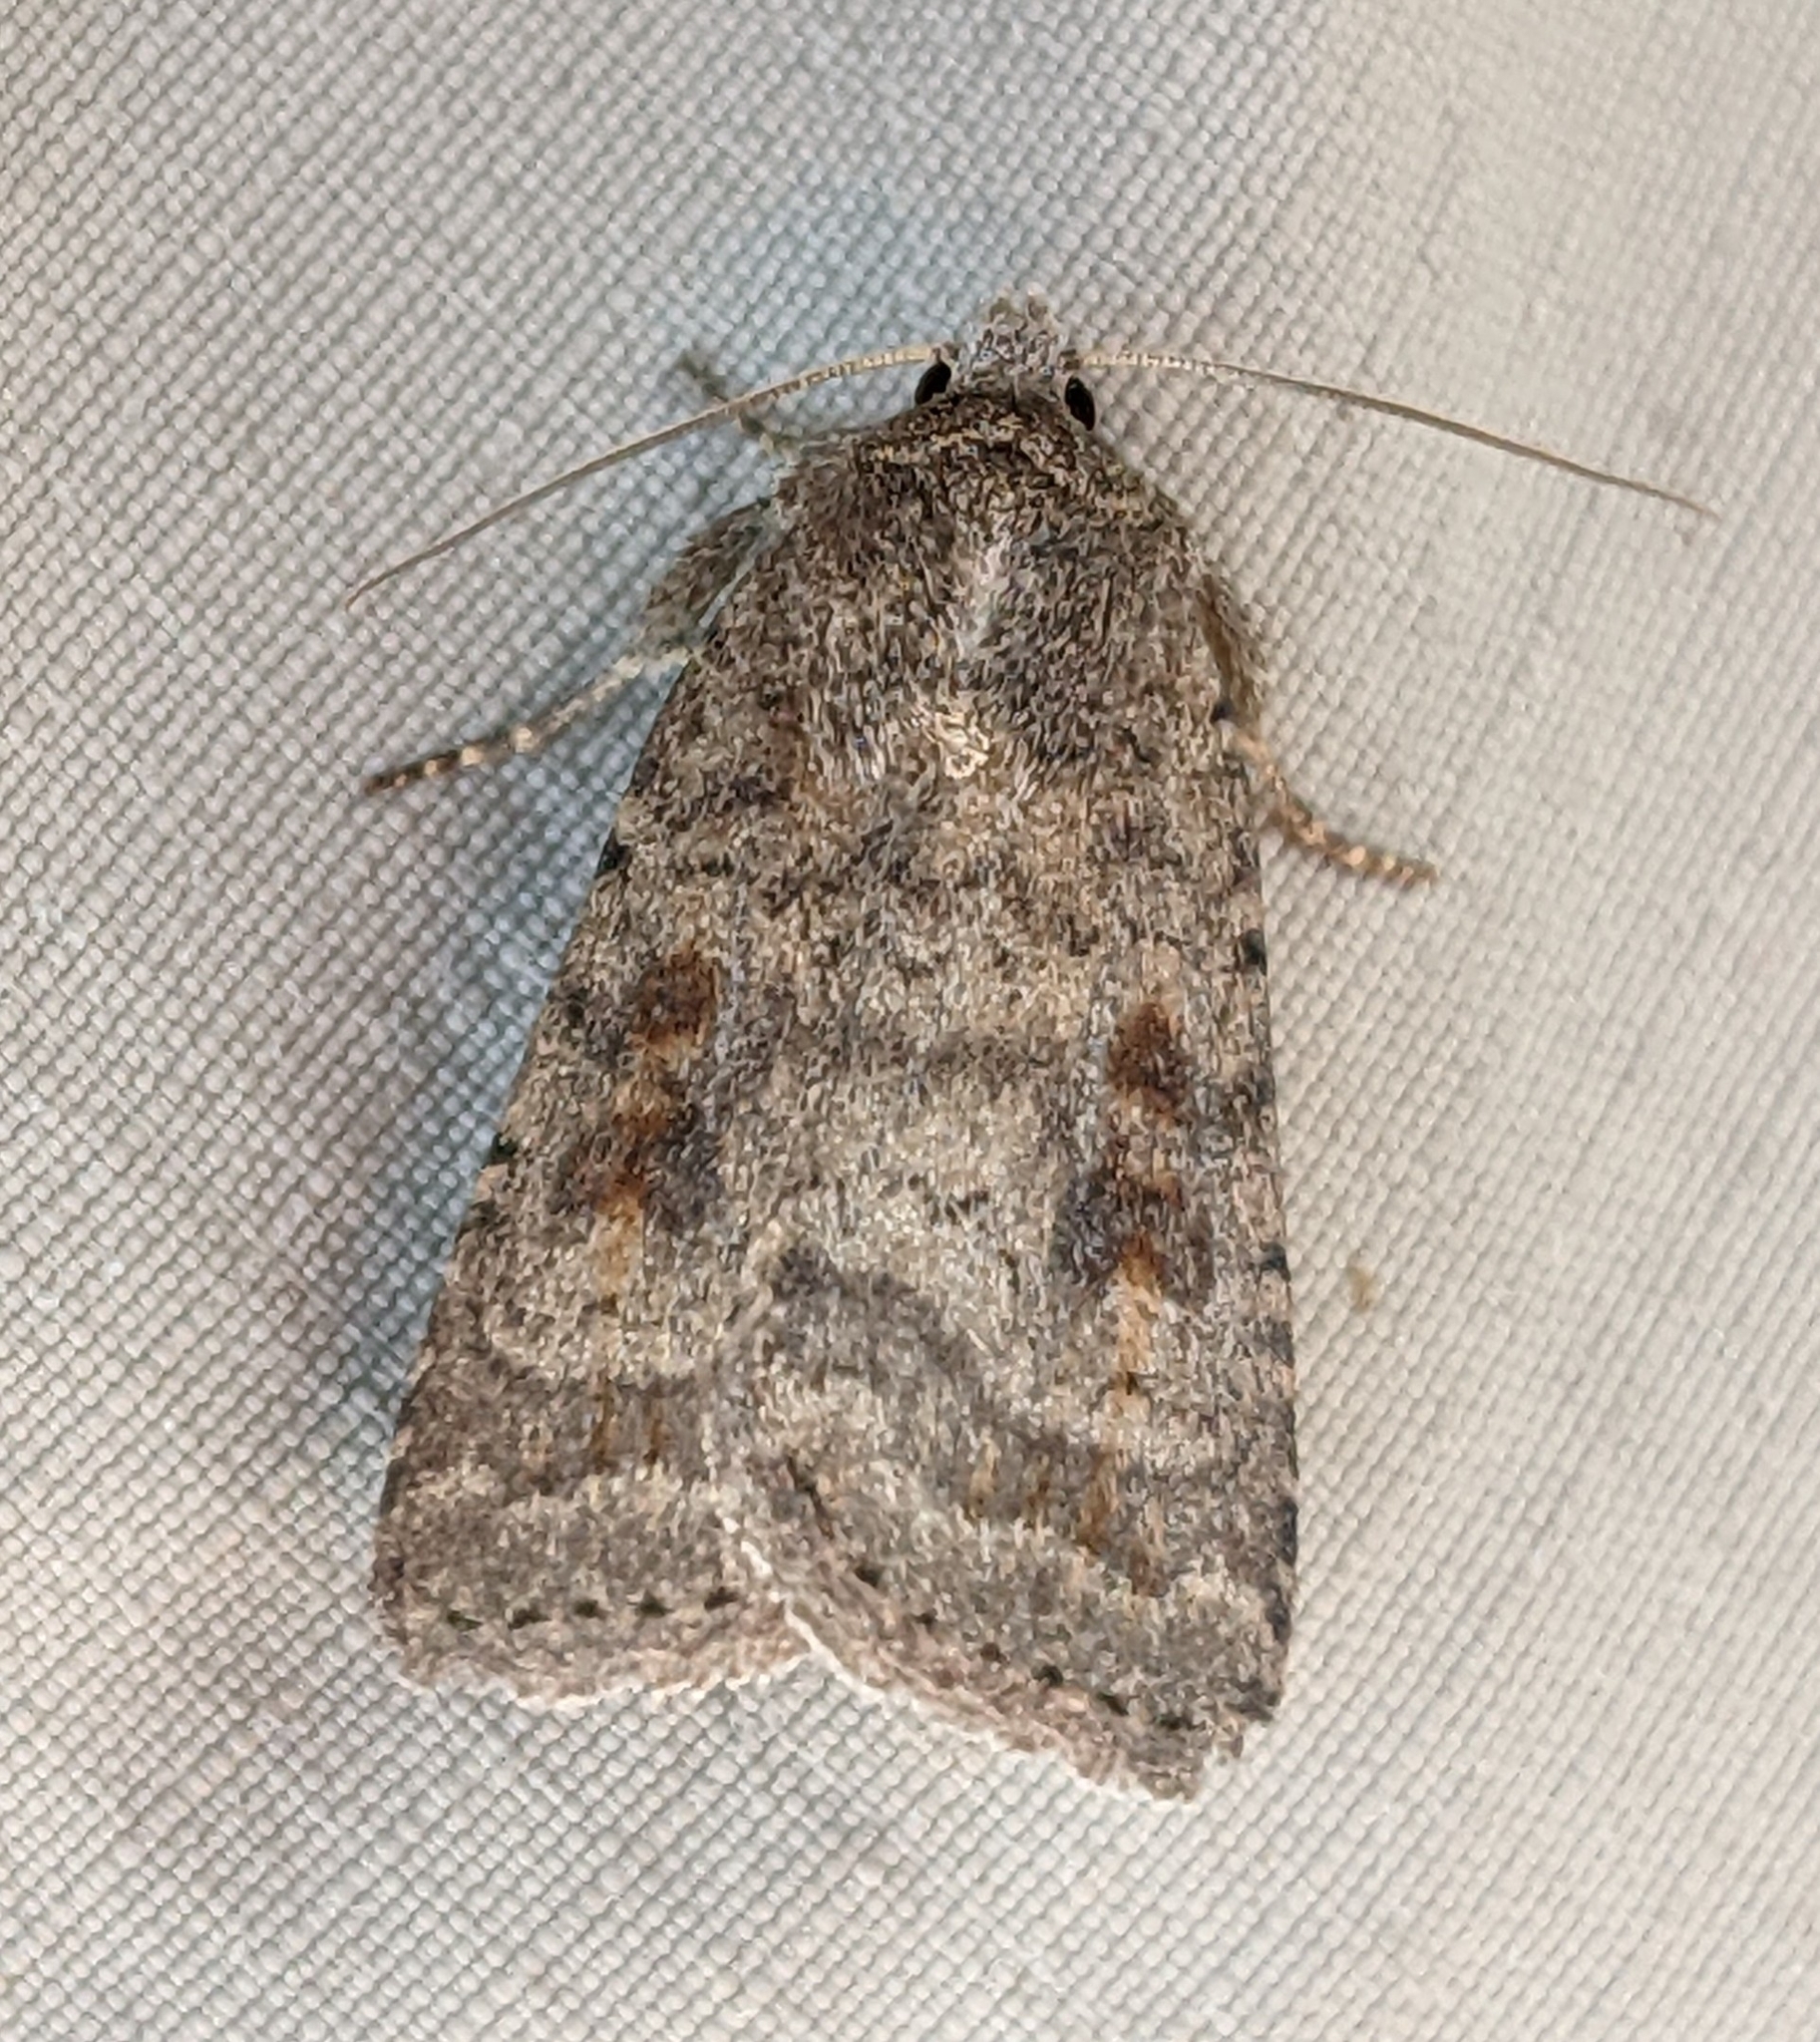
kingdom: Animalia
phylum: Arthropoda
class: Insecta
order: Lepidoptera
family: Noctuidae
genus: Caradrina
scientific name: Caradrina morpheus
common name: Mottled rustic
